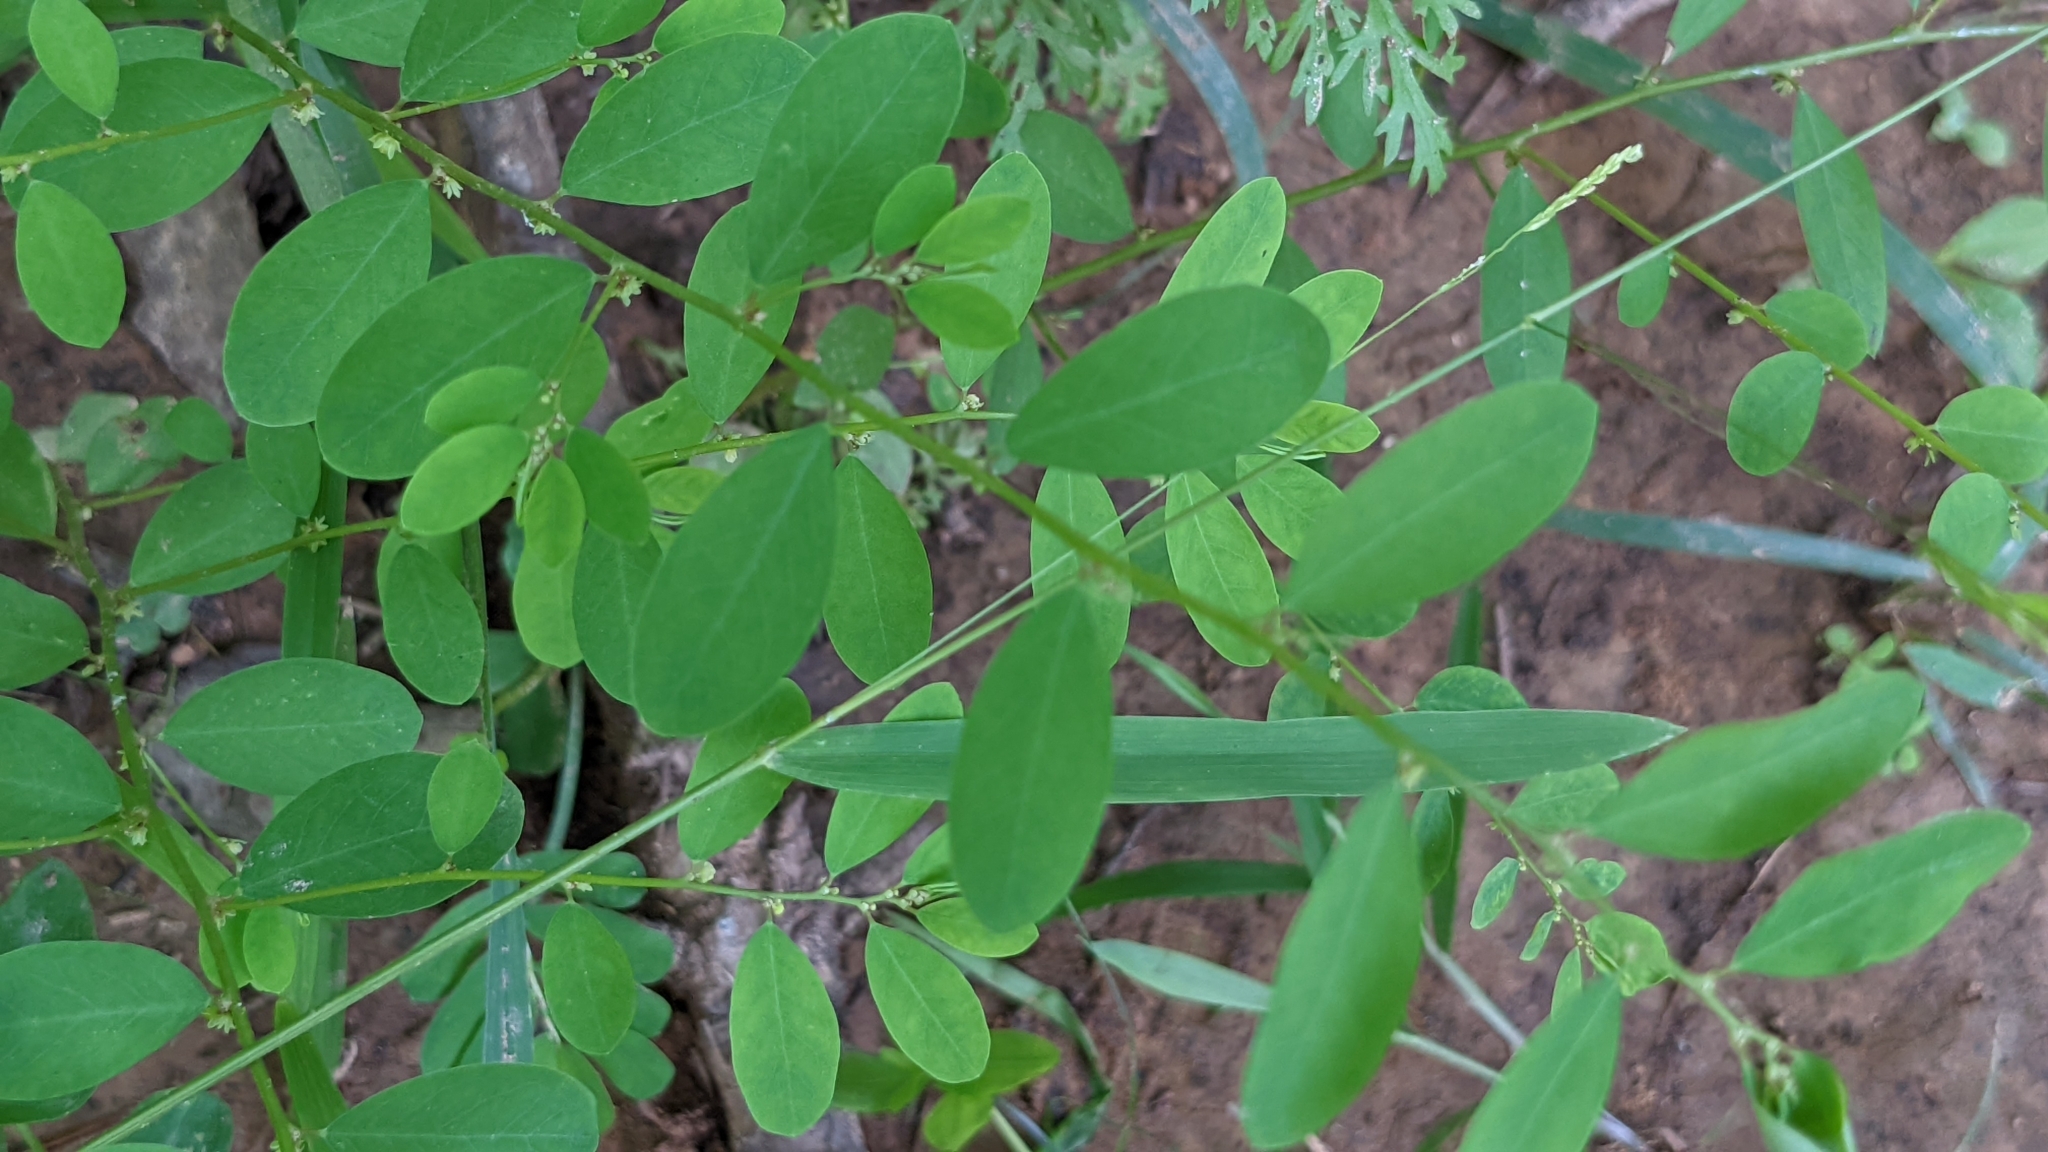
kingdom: Plantae
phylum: Tracheophyta
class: Magnoliopsida
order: Malpighiales
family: Phyllanthaceae
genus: Phyllanthus
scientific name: Phyllanthus caroliniensis
